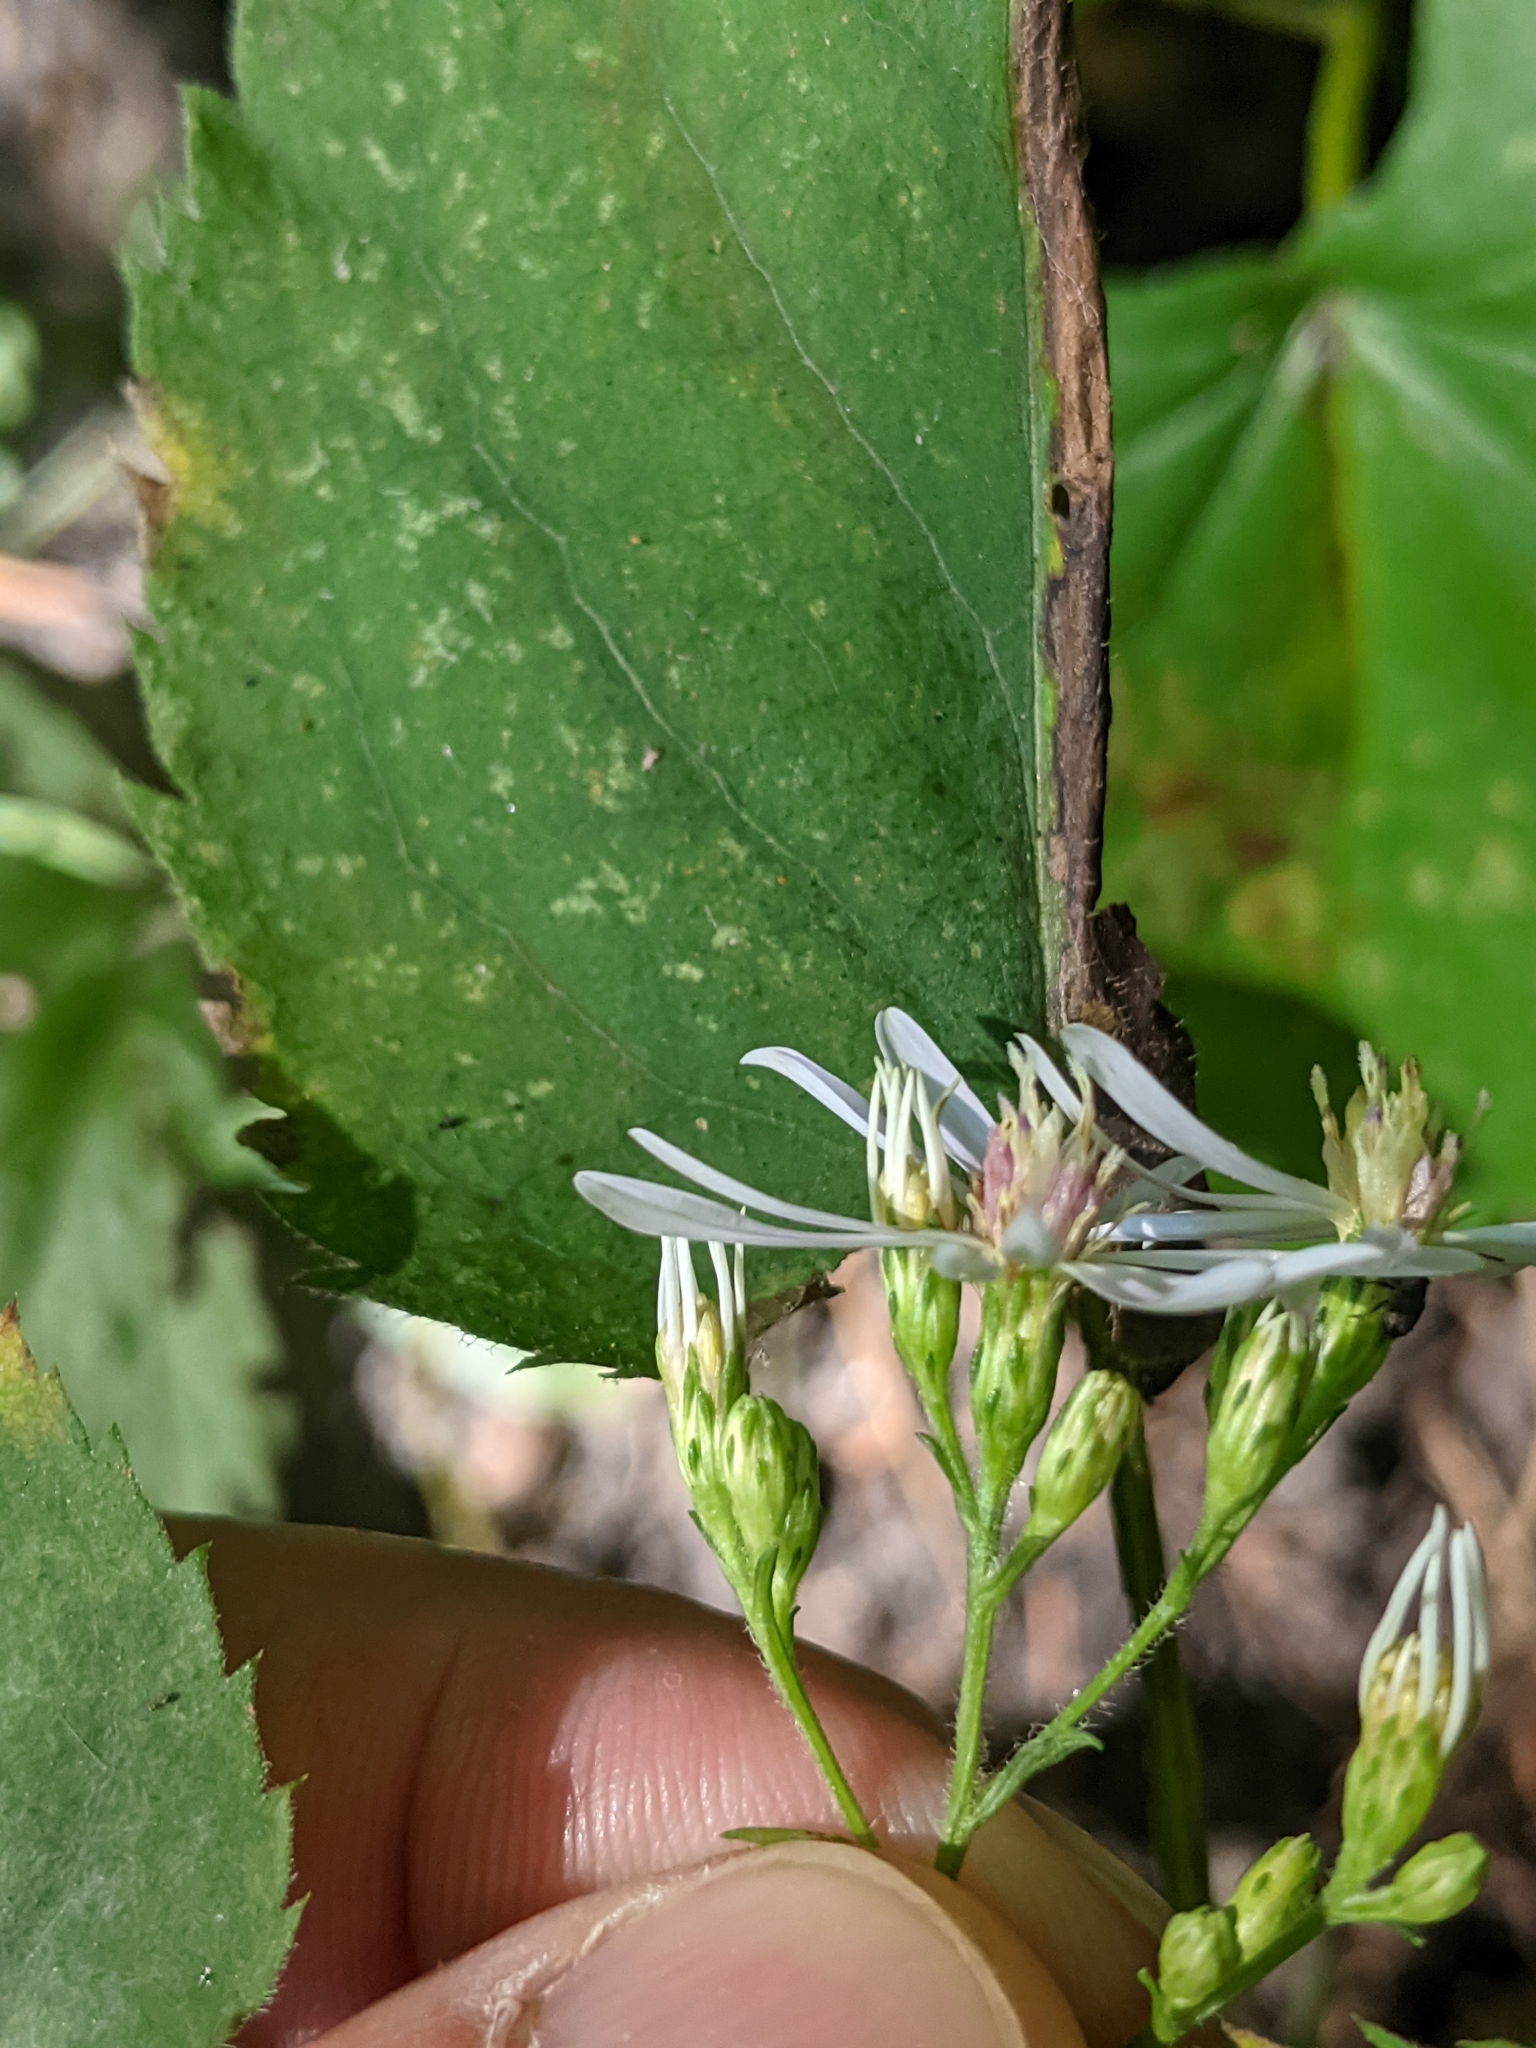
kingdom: Plantae
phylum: Tracheophyta
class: Magnoliopsida
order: Asterales
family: Asteraceae
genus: Symphyotrichum
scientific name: Symphyotrichum cordifolium
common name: Beeweed
